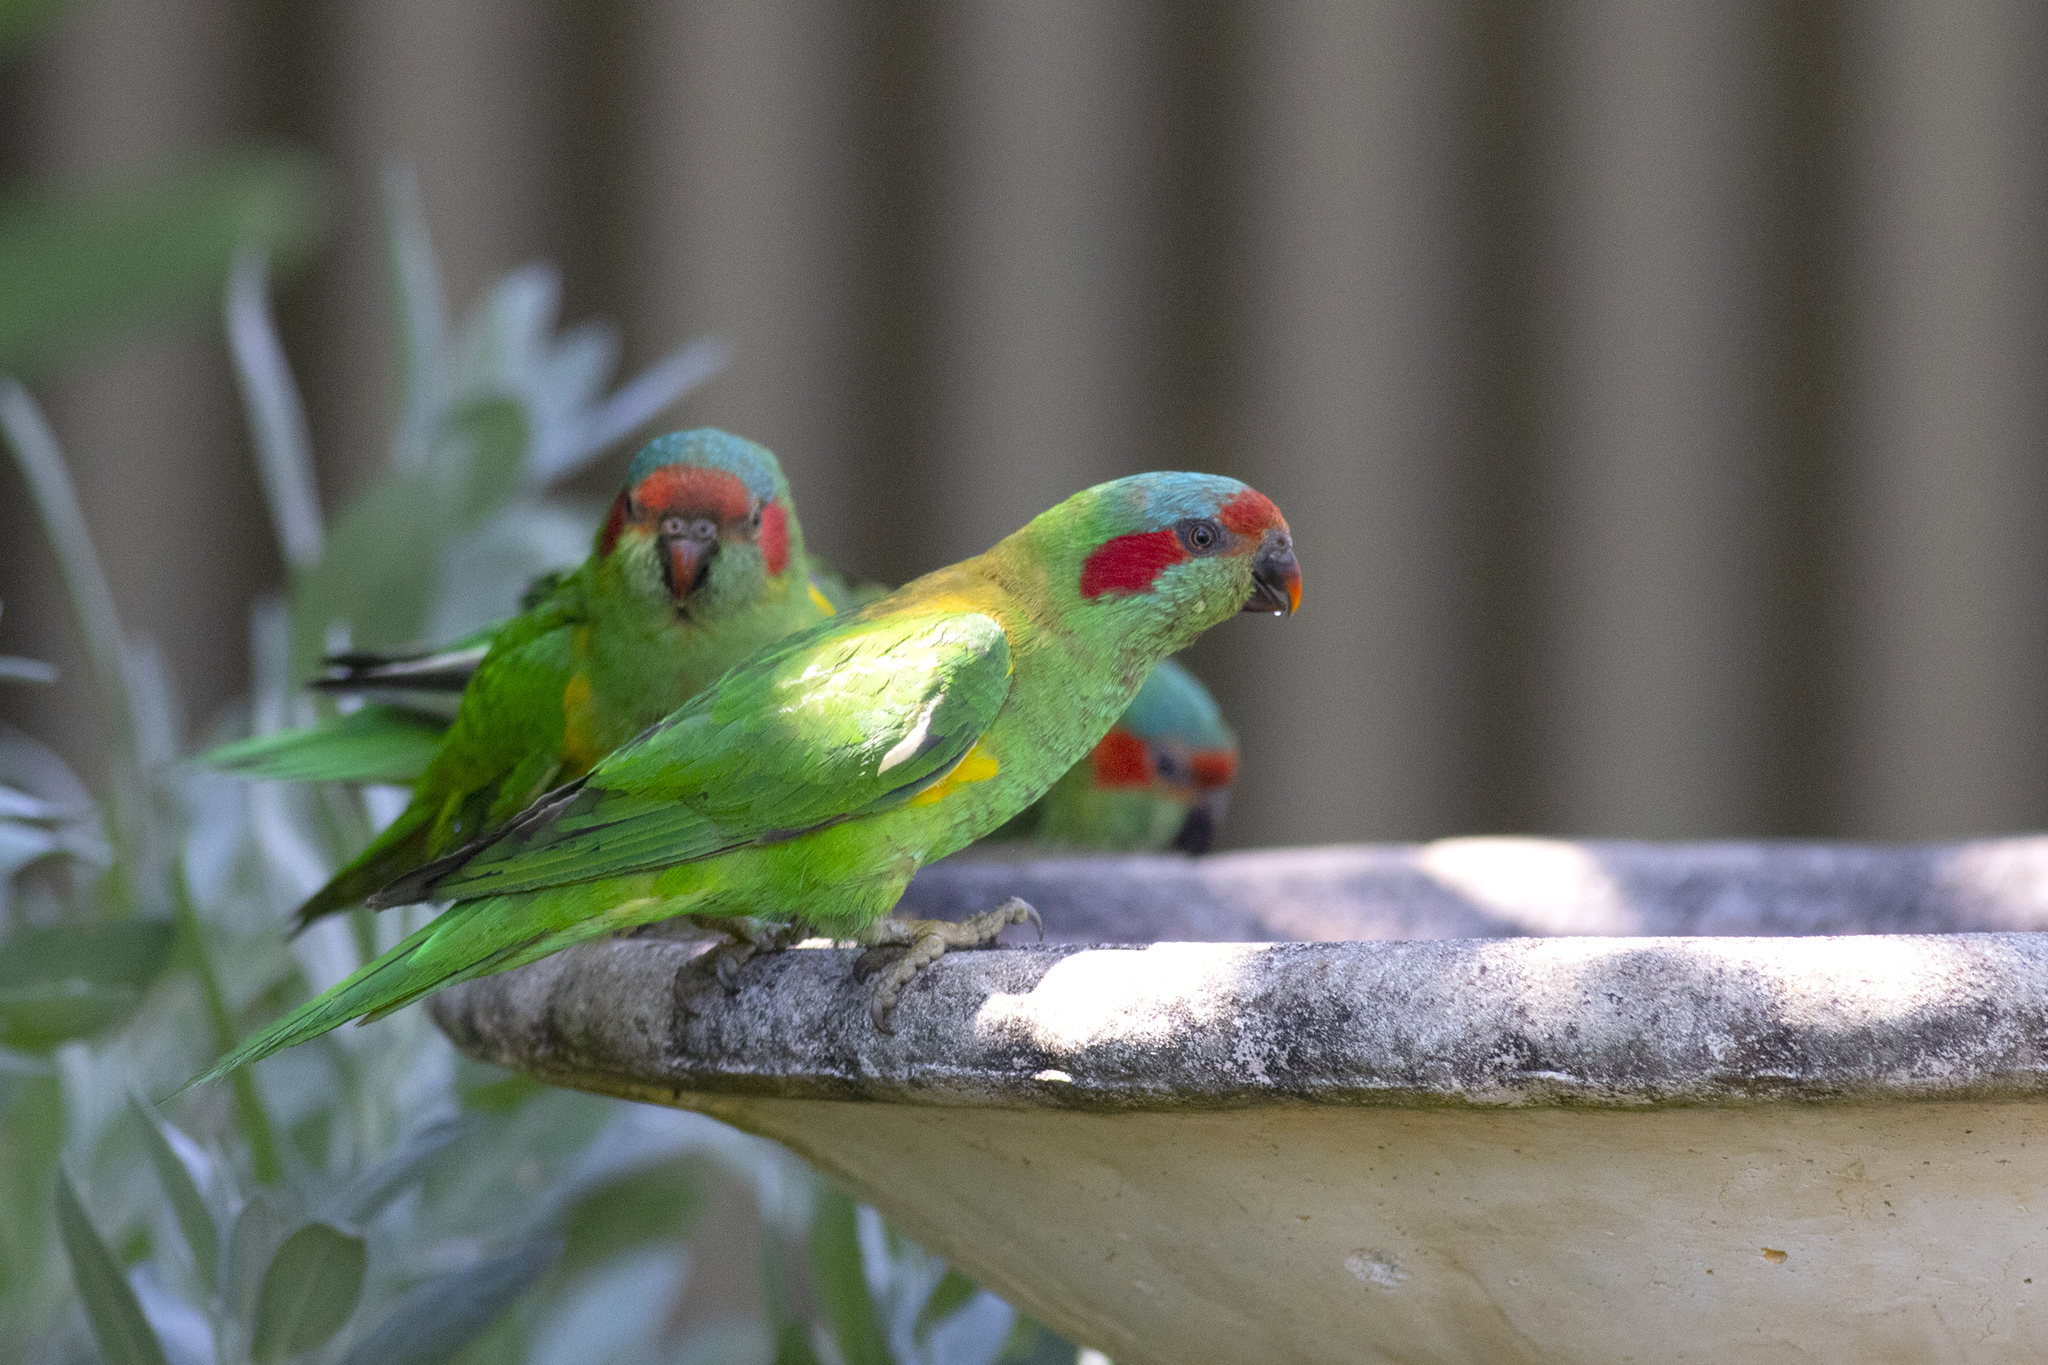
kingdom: Animalia
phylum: Chordata
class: Aves
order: Psittaciformes
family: Psittacidae
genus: Glossopsitta
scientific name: Glossopsitta concinna
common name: Musk lorikeet
